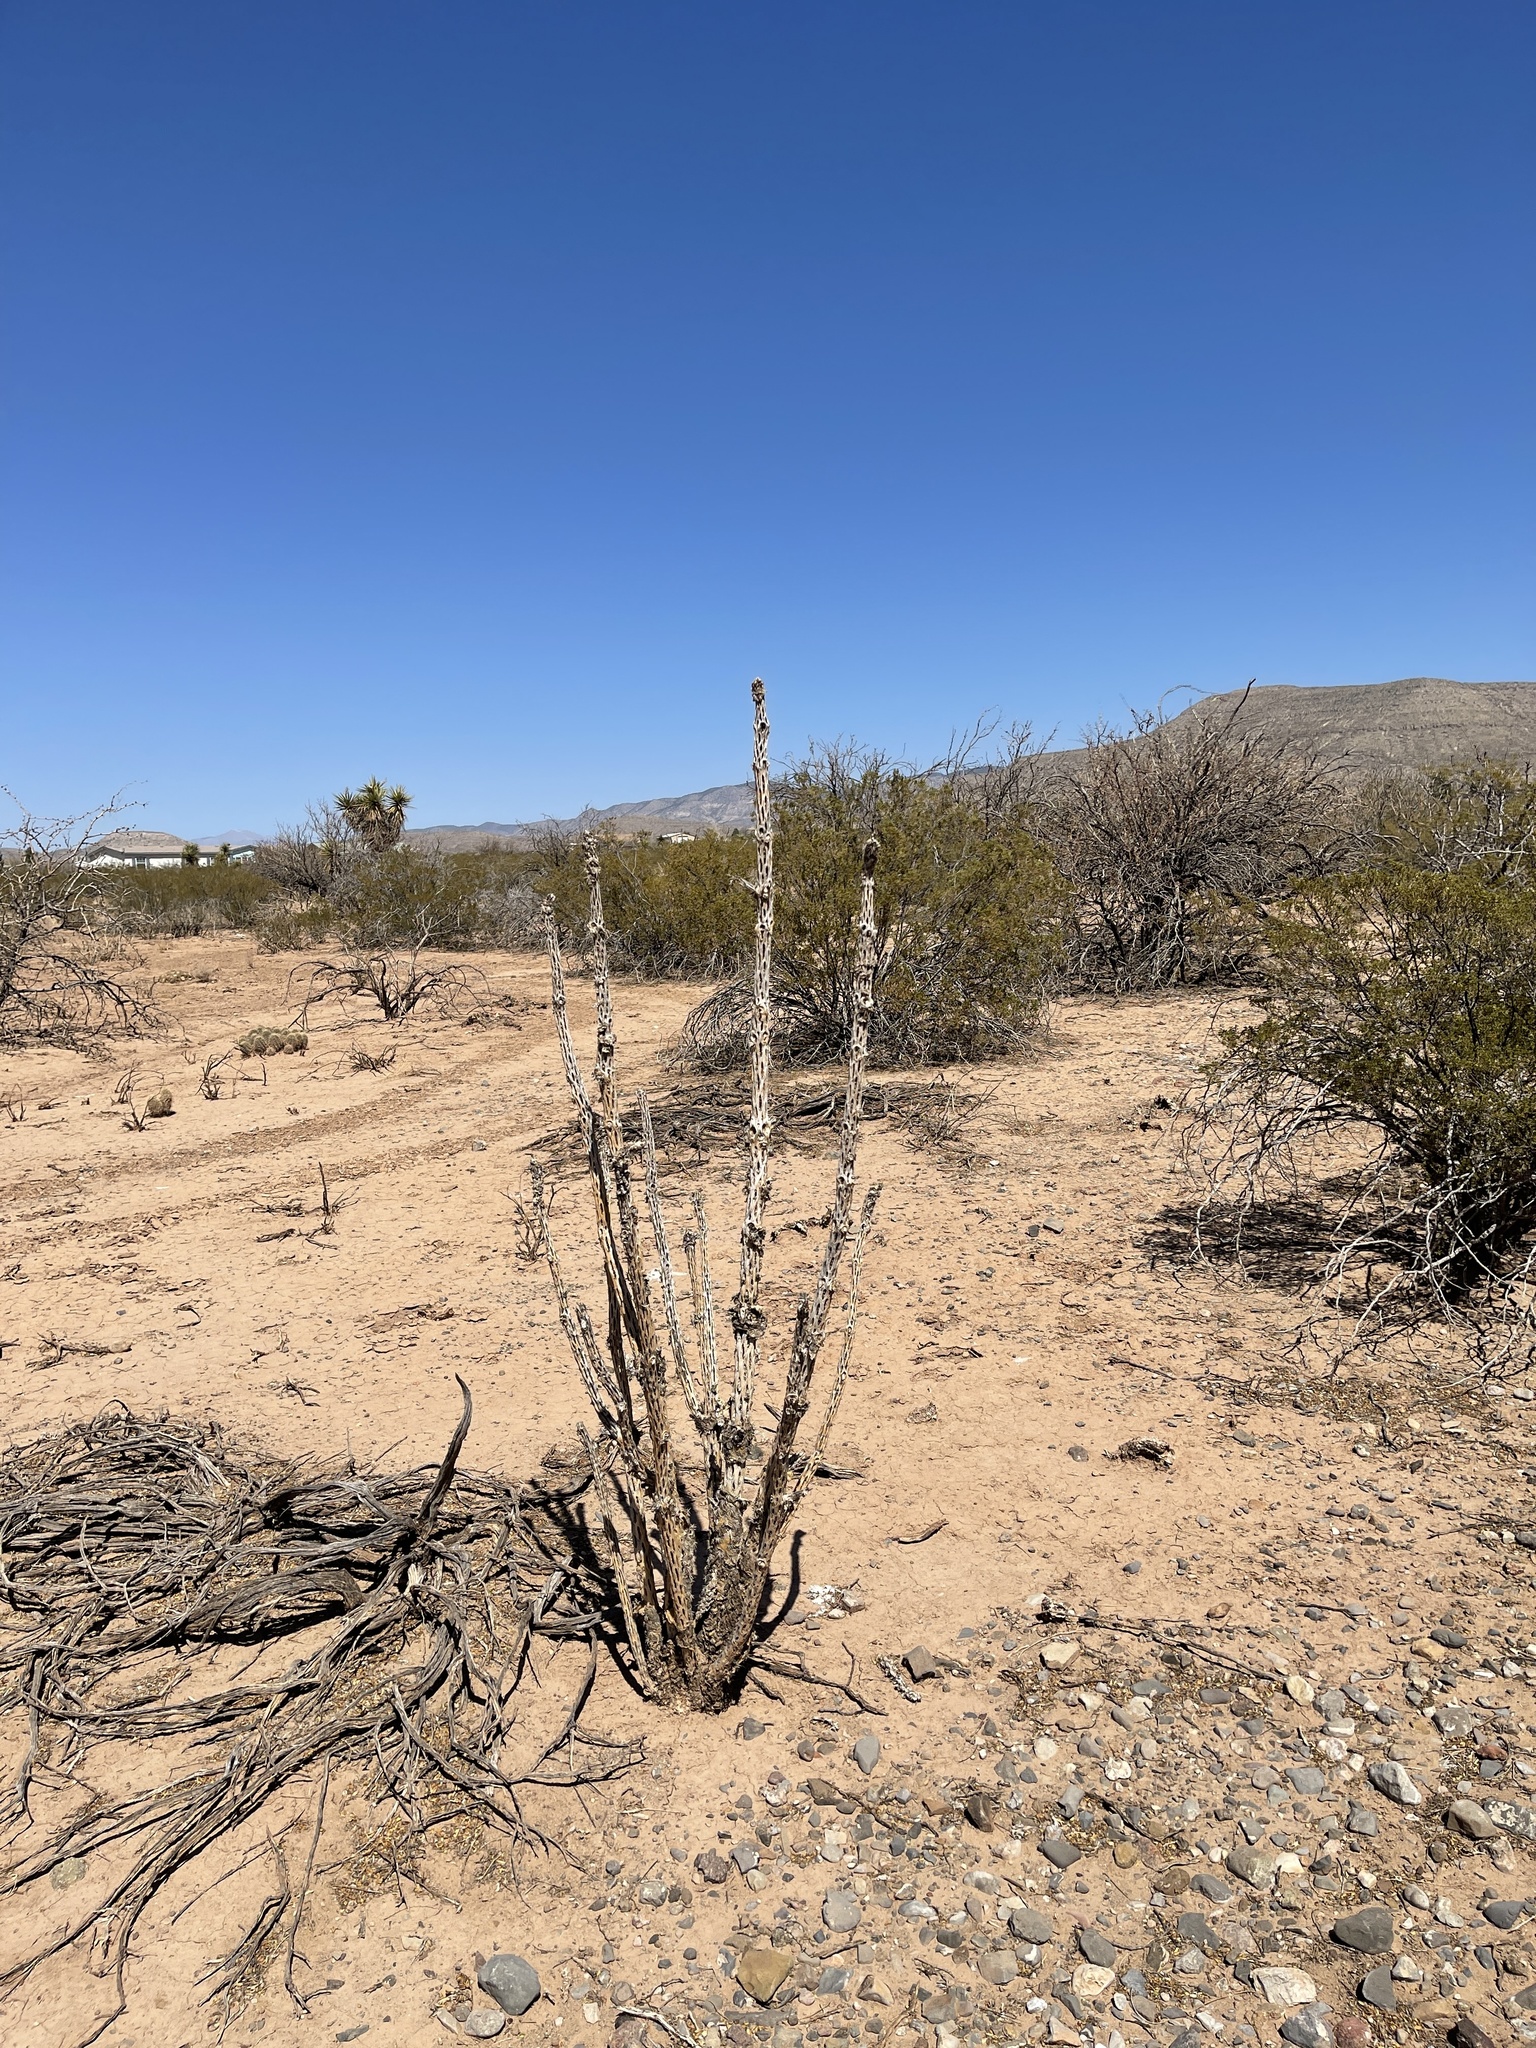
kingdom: Plantae
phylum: Tracheophyta
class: Magnoliopsida
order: Caryophyllales
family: Cactaceae
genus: Cylindropuntia
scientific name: Cylindropuntia imbricata
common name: Candelabrum cactus
